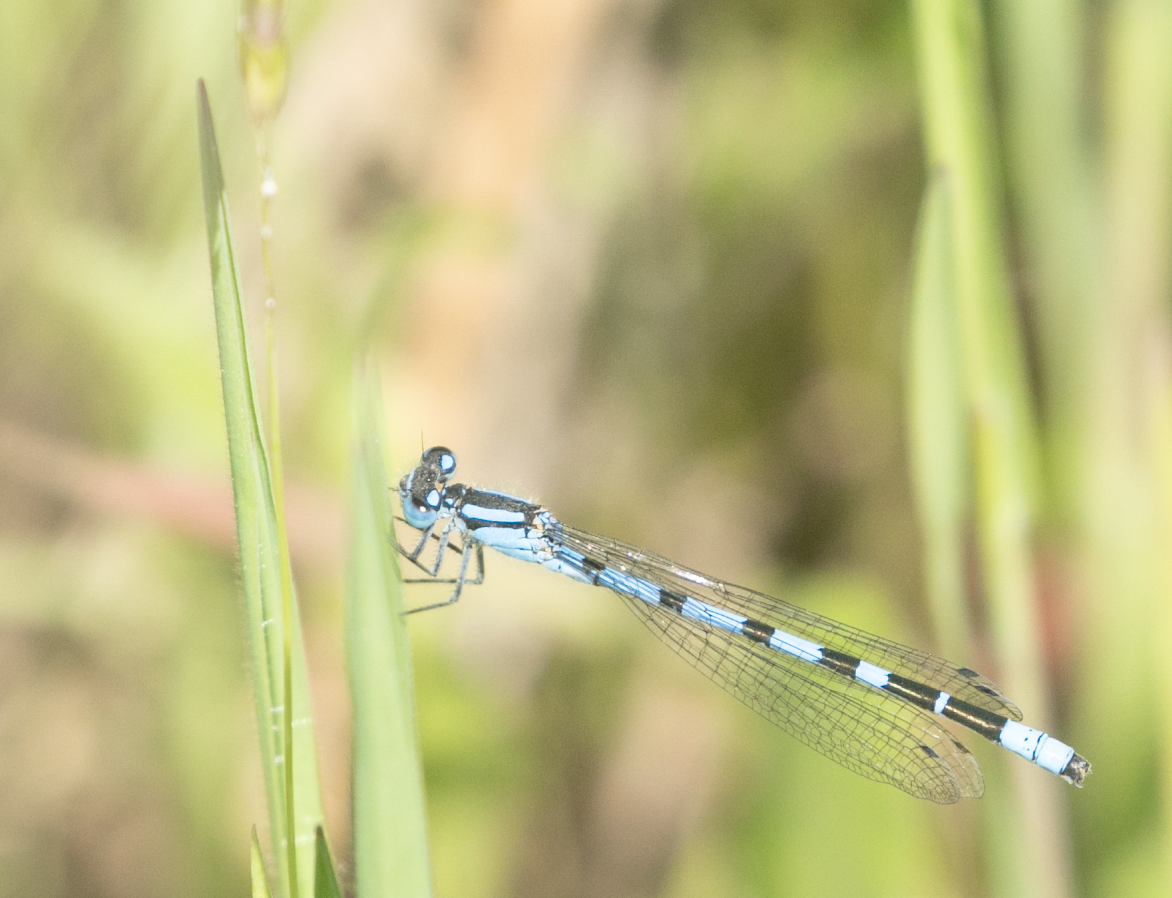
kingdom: Animalia
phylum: Arthropoda
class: Insecta
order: Odonata
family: Coenagrionidae
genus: Enallagma
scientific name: Enallagma cyathigerum
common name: Common blue damselfly
